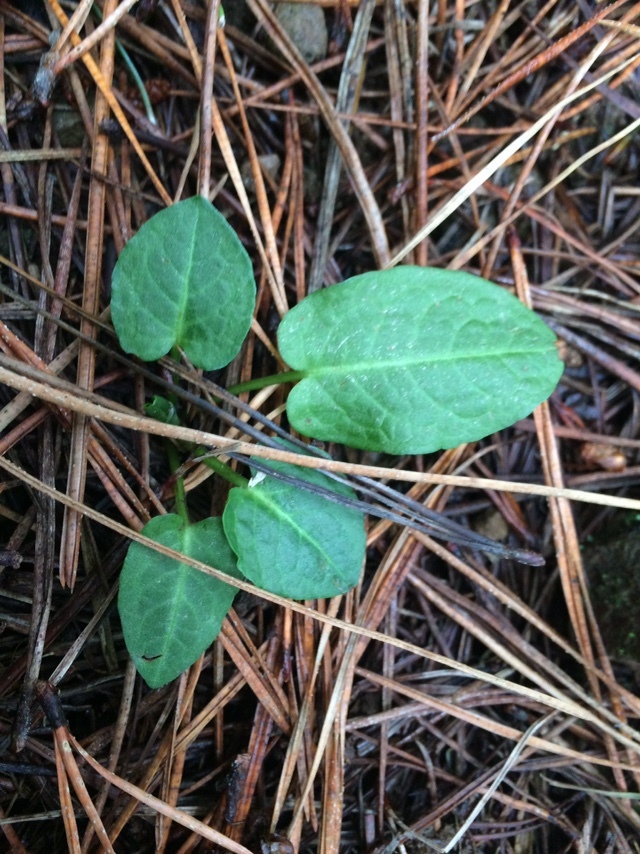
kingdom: Plantae
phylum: Tracheophyta
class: Magnoliopsida
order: Caryophyllales
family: Polygonaceae
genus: Rumex
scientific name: Rumex obtusifolius
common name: Bitter dock
